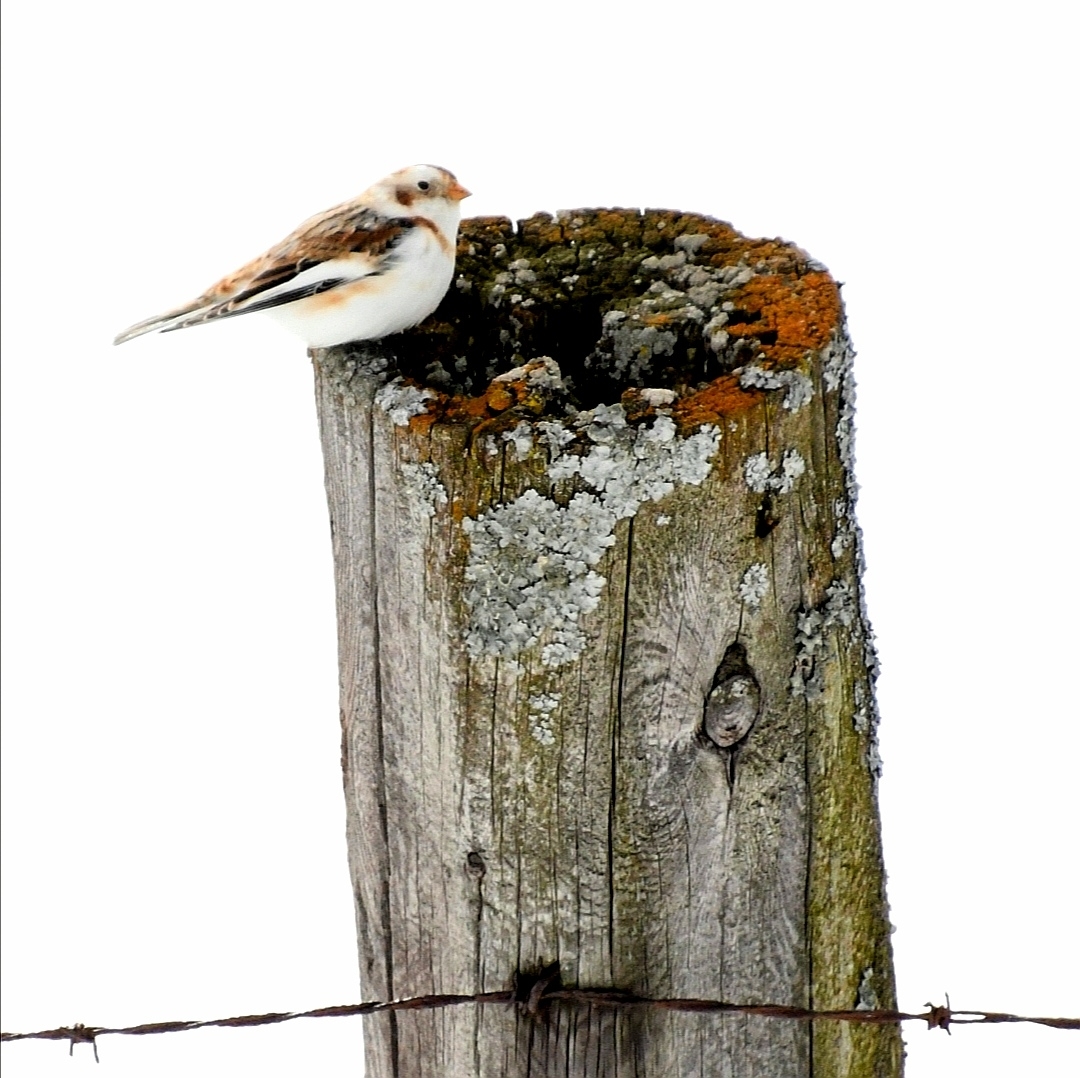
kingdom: Animalia
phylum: Chordata
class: Aves
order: Passeriformes
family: Calcariidae
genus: Plectrophenax
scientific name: Plectrophenax nivalis
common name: Snow bunting
